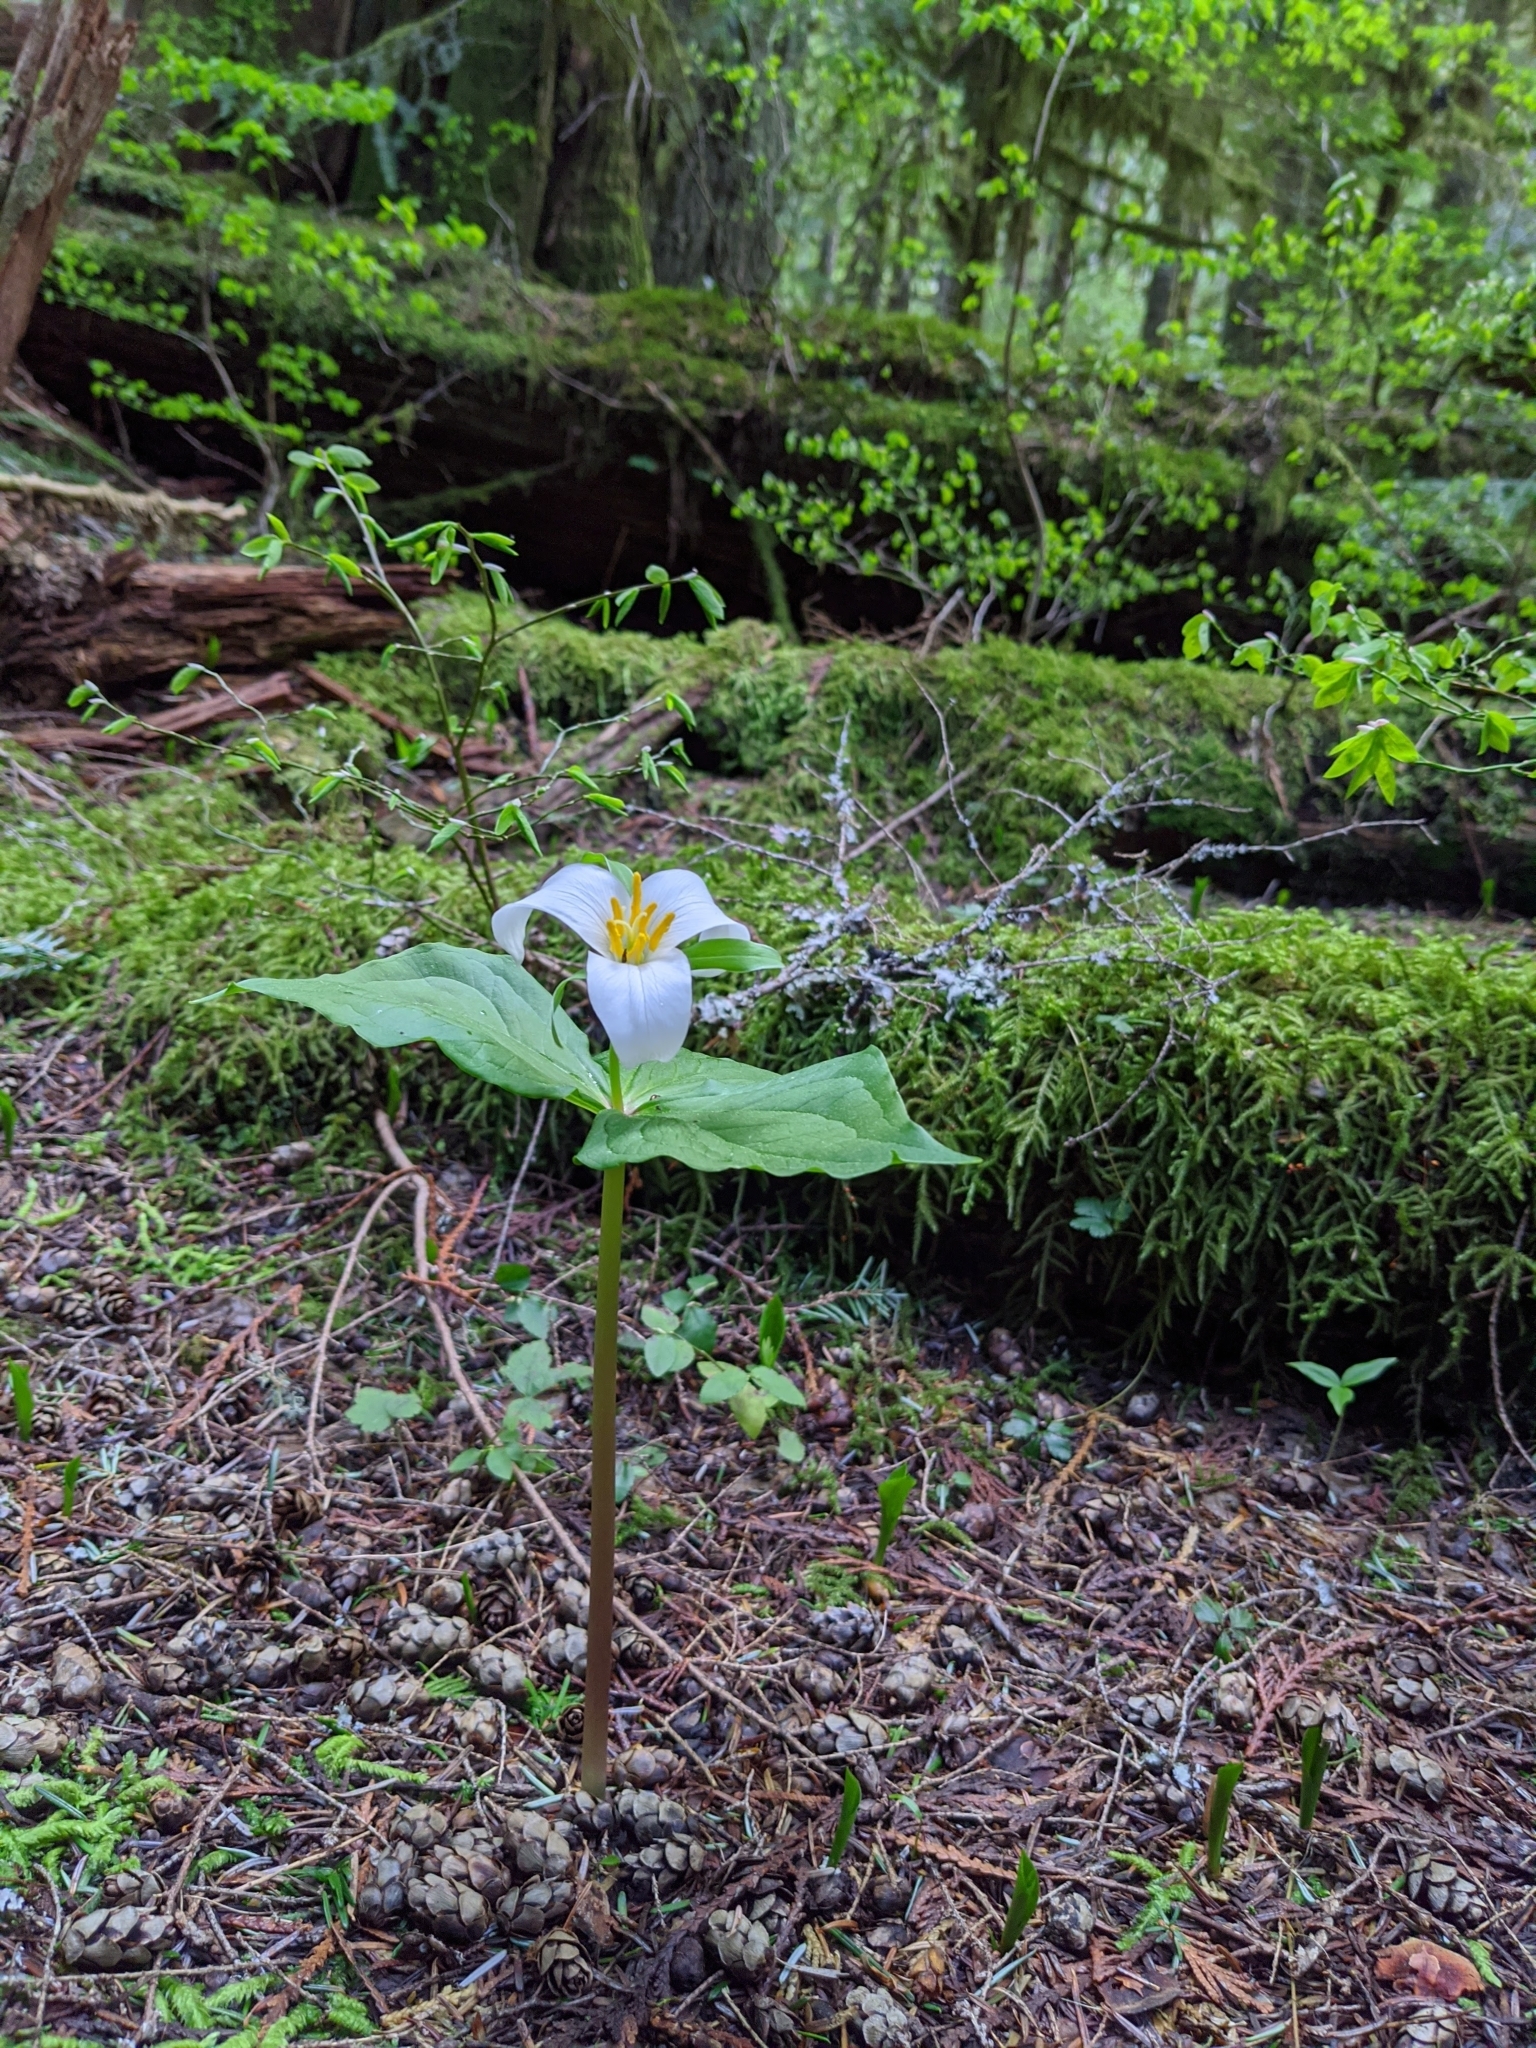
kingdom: Plantae
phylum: Tracheophyta
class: Liliopsida
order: Liliales
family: Melanthiaceae
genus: Trillium
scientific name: Trillium ovatum
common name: Pacific trillium
